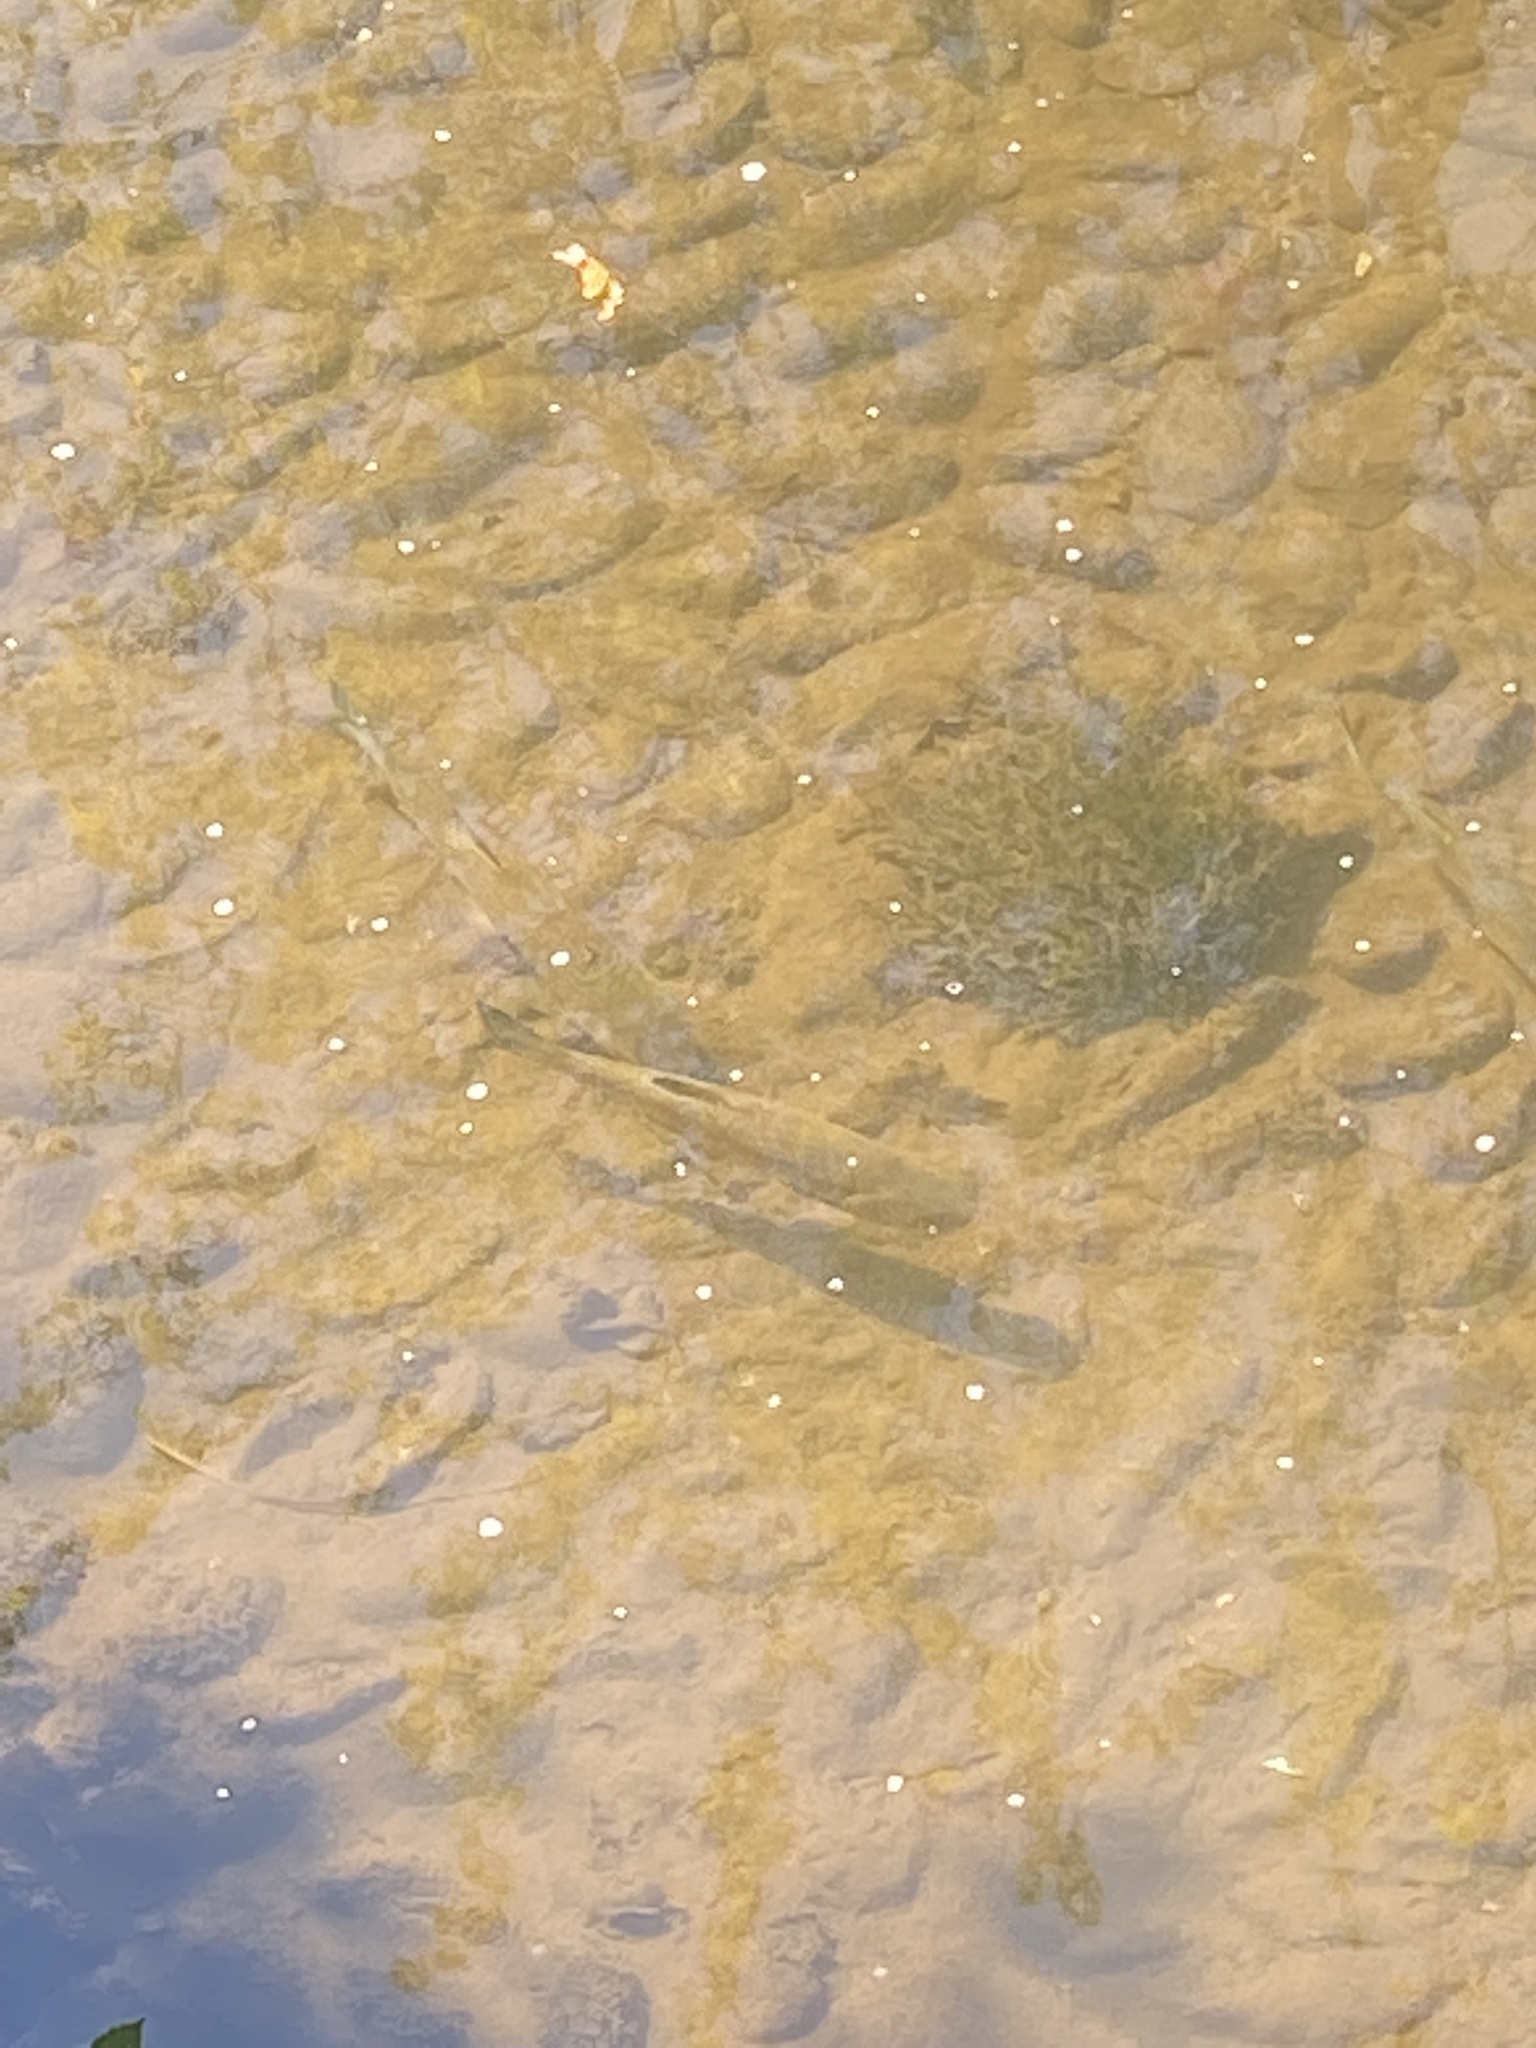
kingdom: Animalia
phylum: Chordata
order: Cypriniformes
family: Cyprinidae
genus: Squalius
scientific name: Squalius cephalus
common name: Chub
